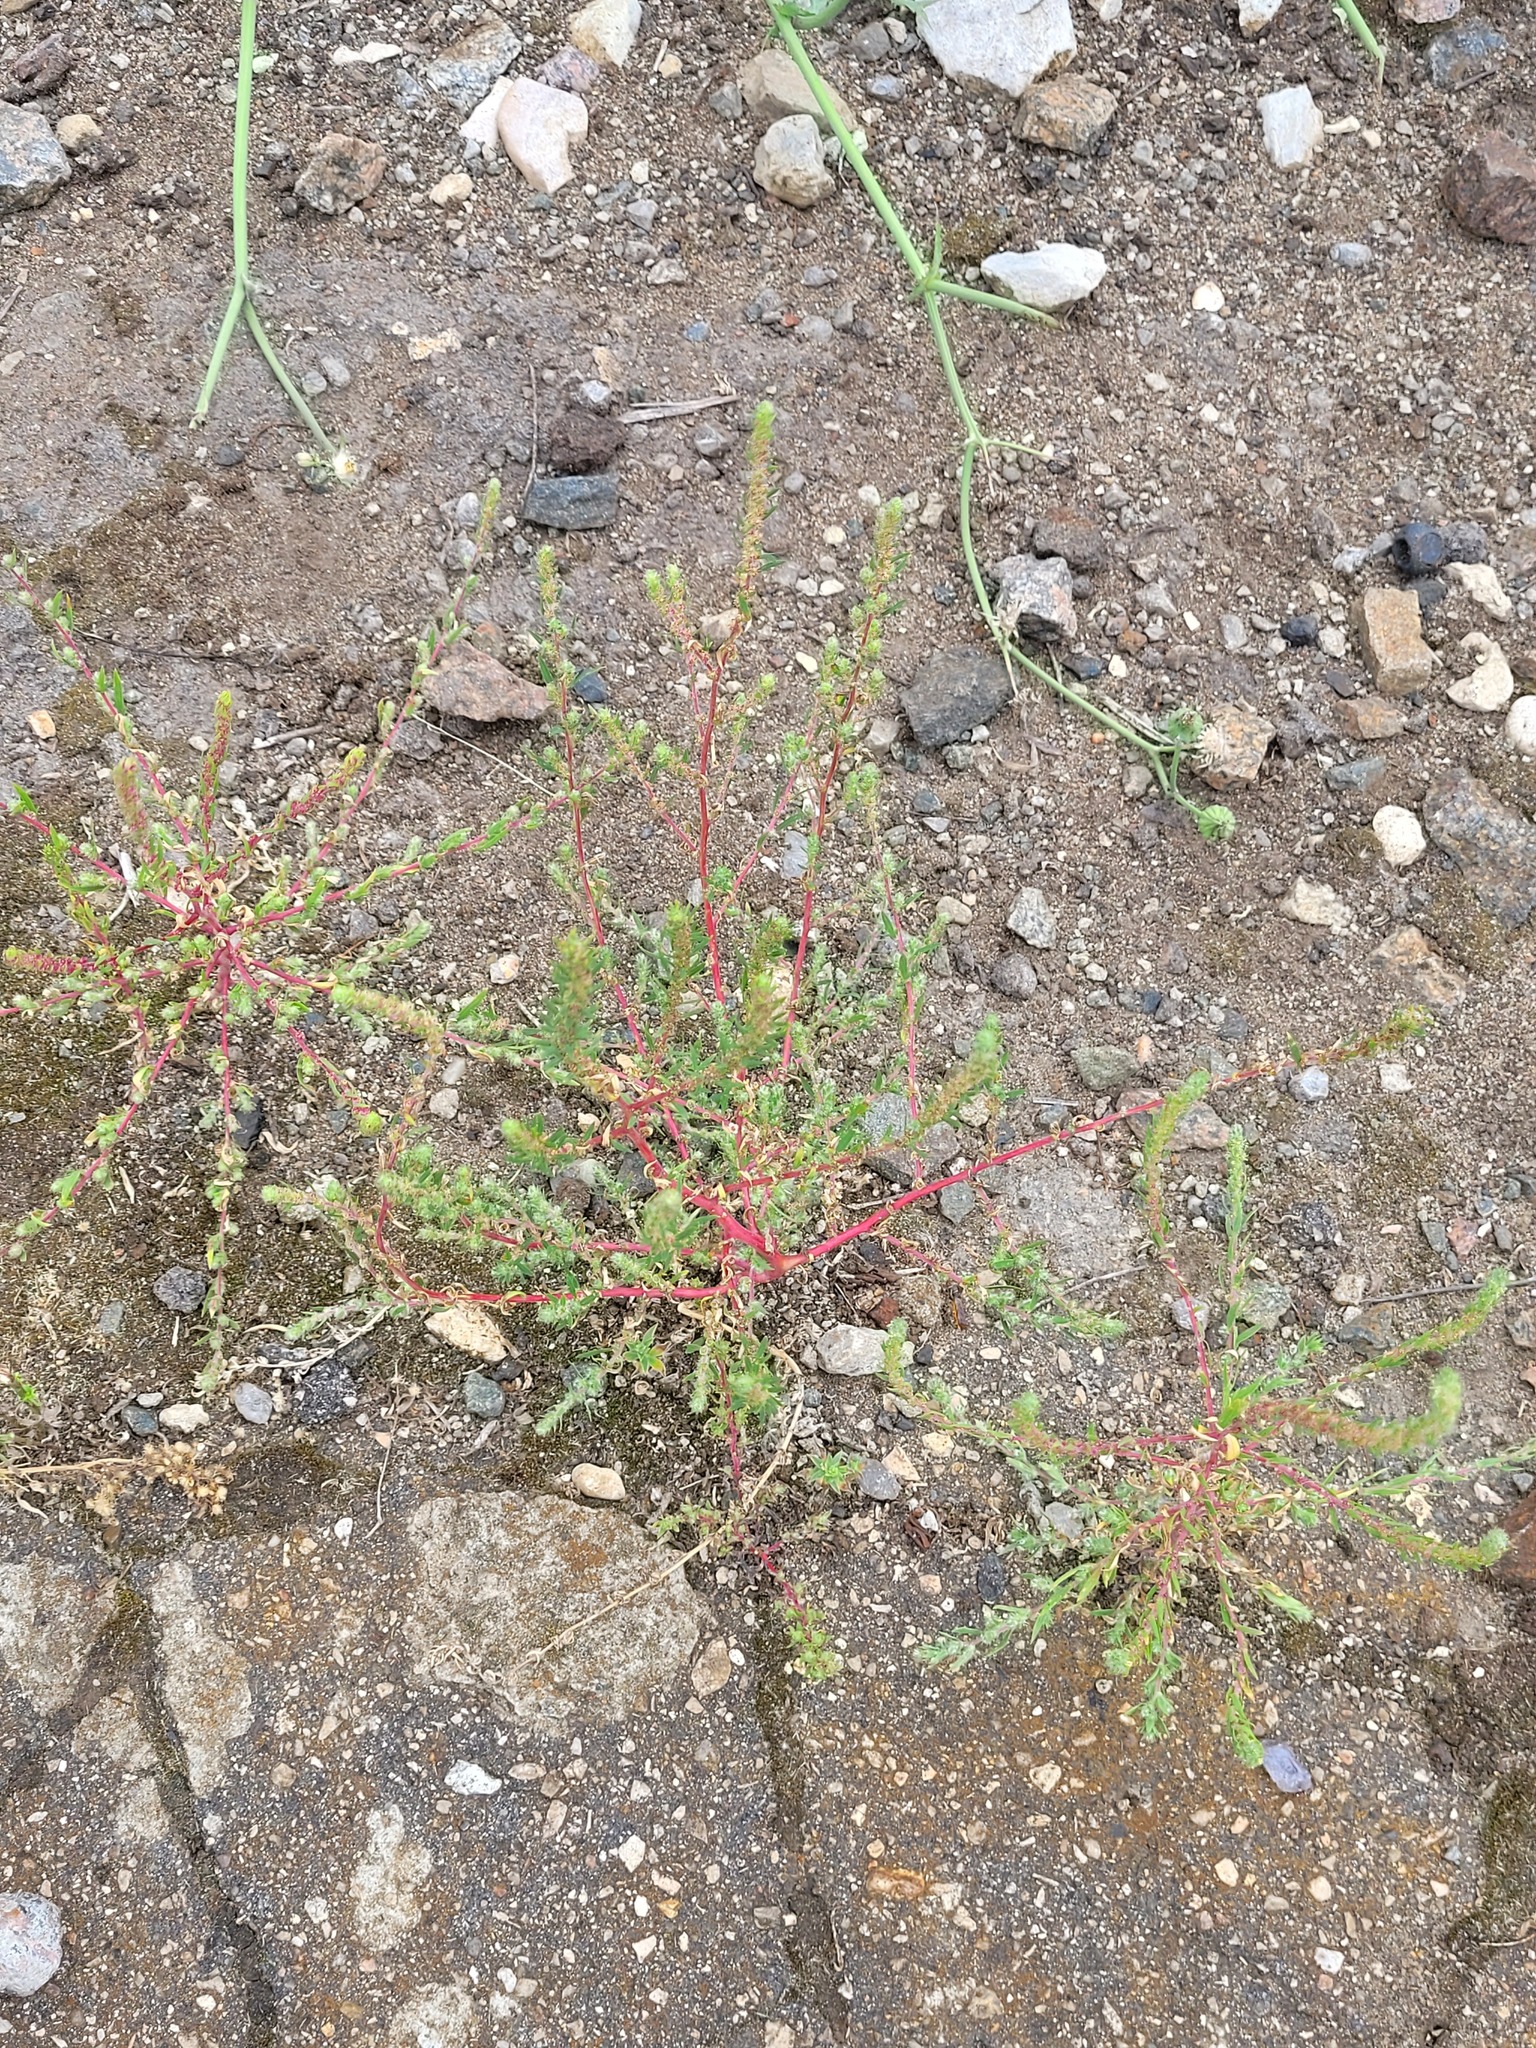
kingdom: Plantae
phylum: Tracheophyta
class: Magnoliopsida
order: Caryophyllales
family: Amaranthaceae
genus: Bassia
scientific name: Bassia scoparia
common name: Belvedere
